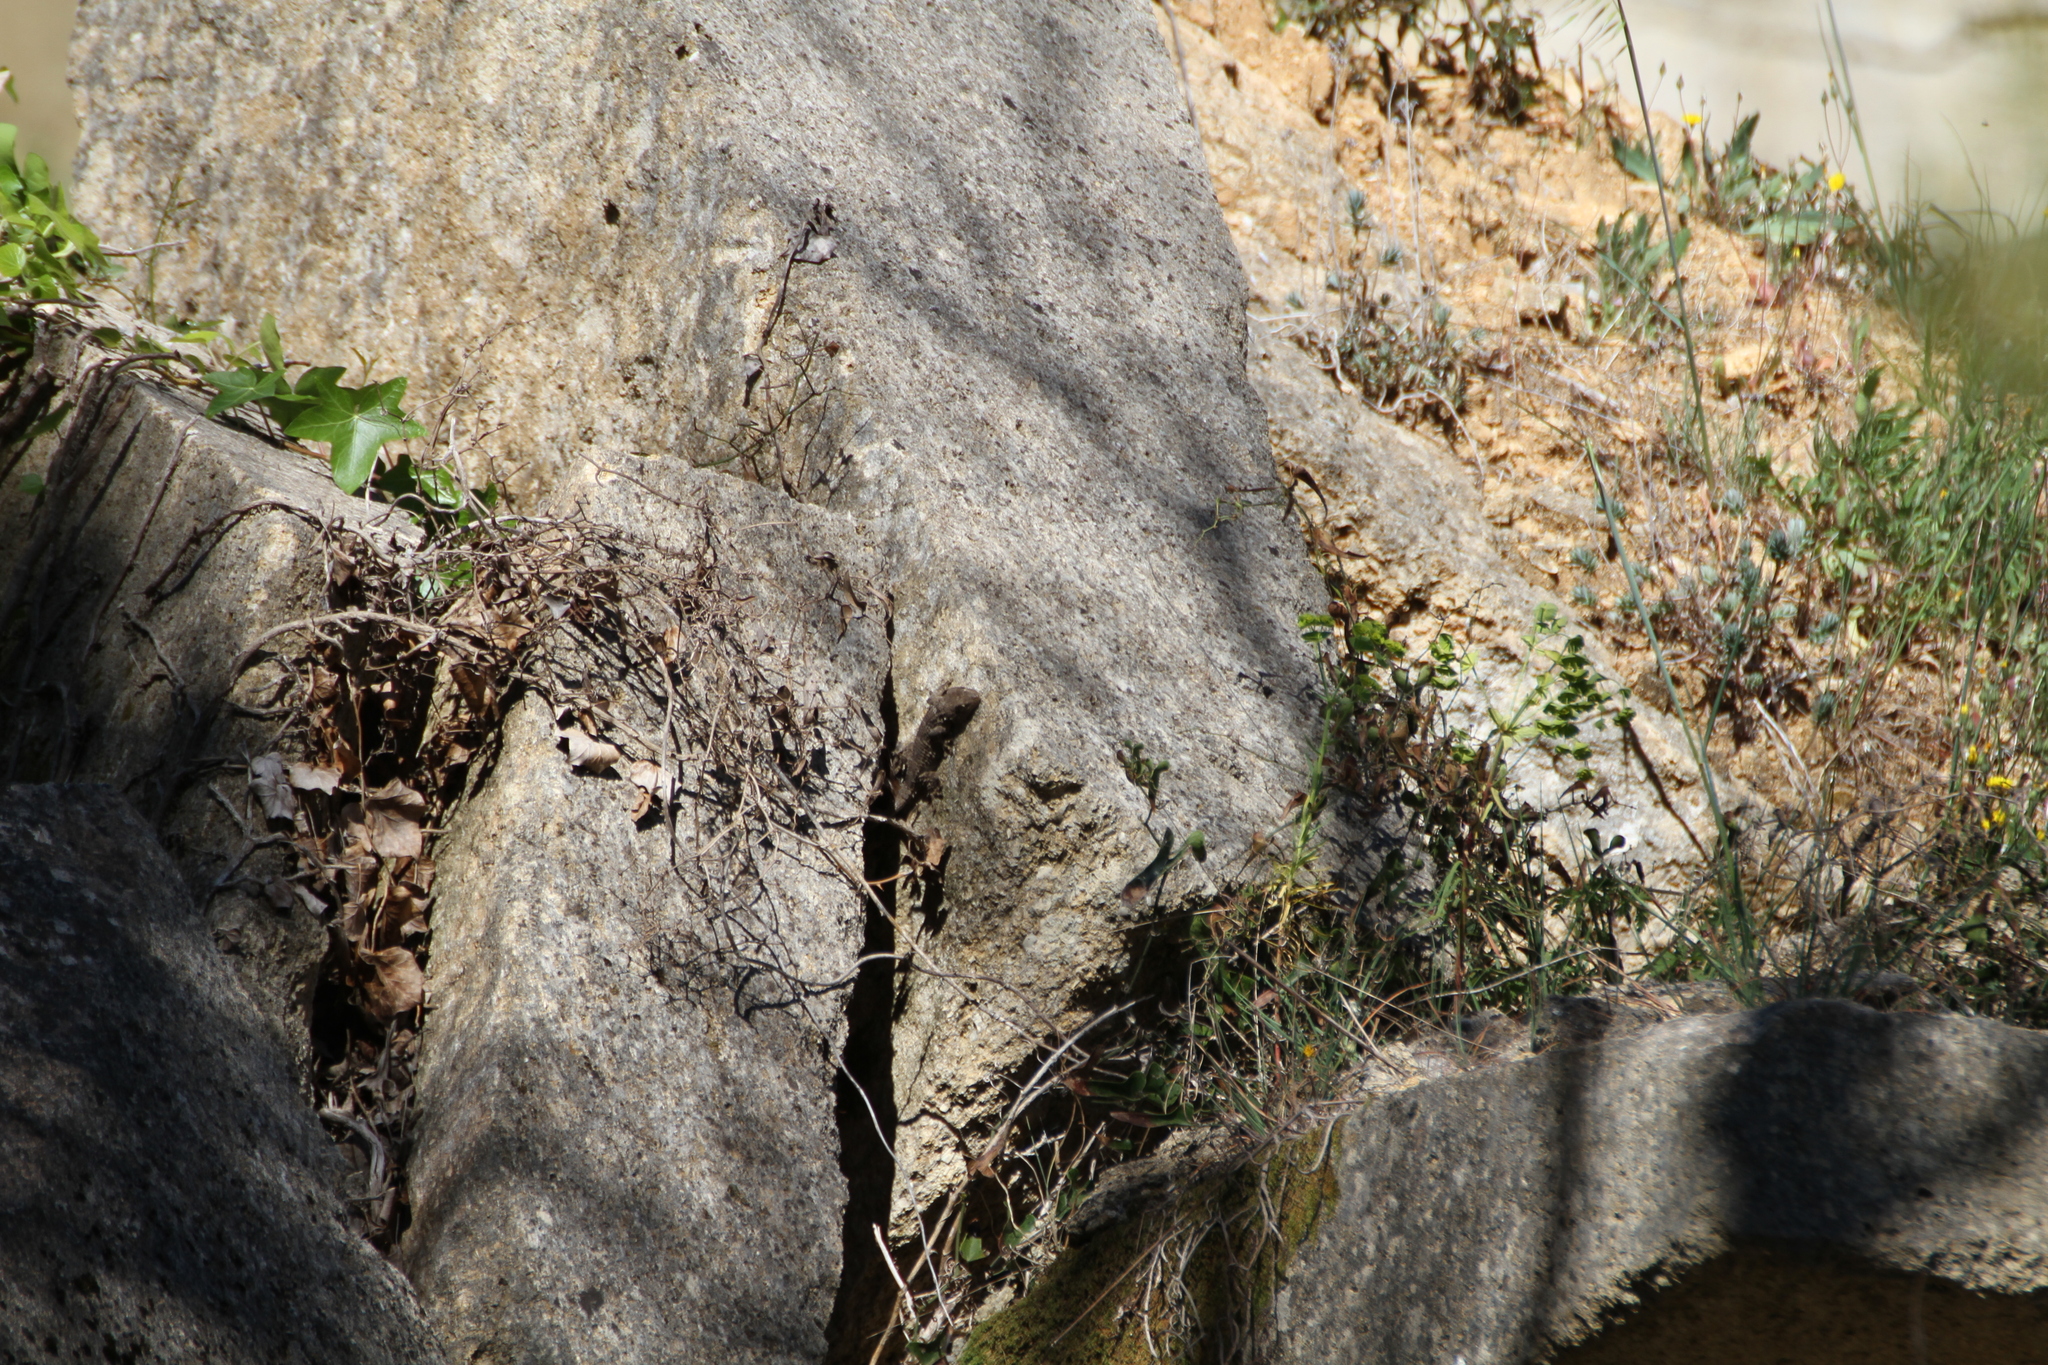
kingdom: Animalia
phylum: Chordata
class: Squamata
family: Phyllodactylidae
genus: Tarentola
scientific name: Tarentola mauritanica
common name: Moorish gecko
